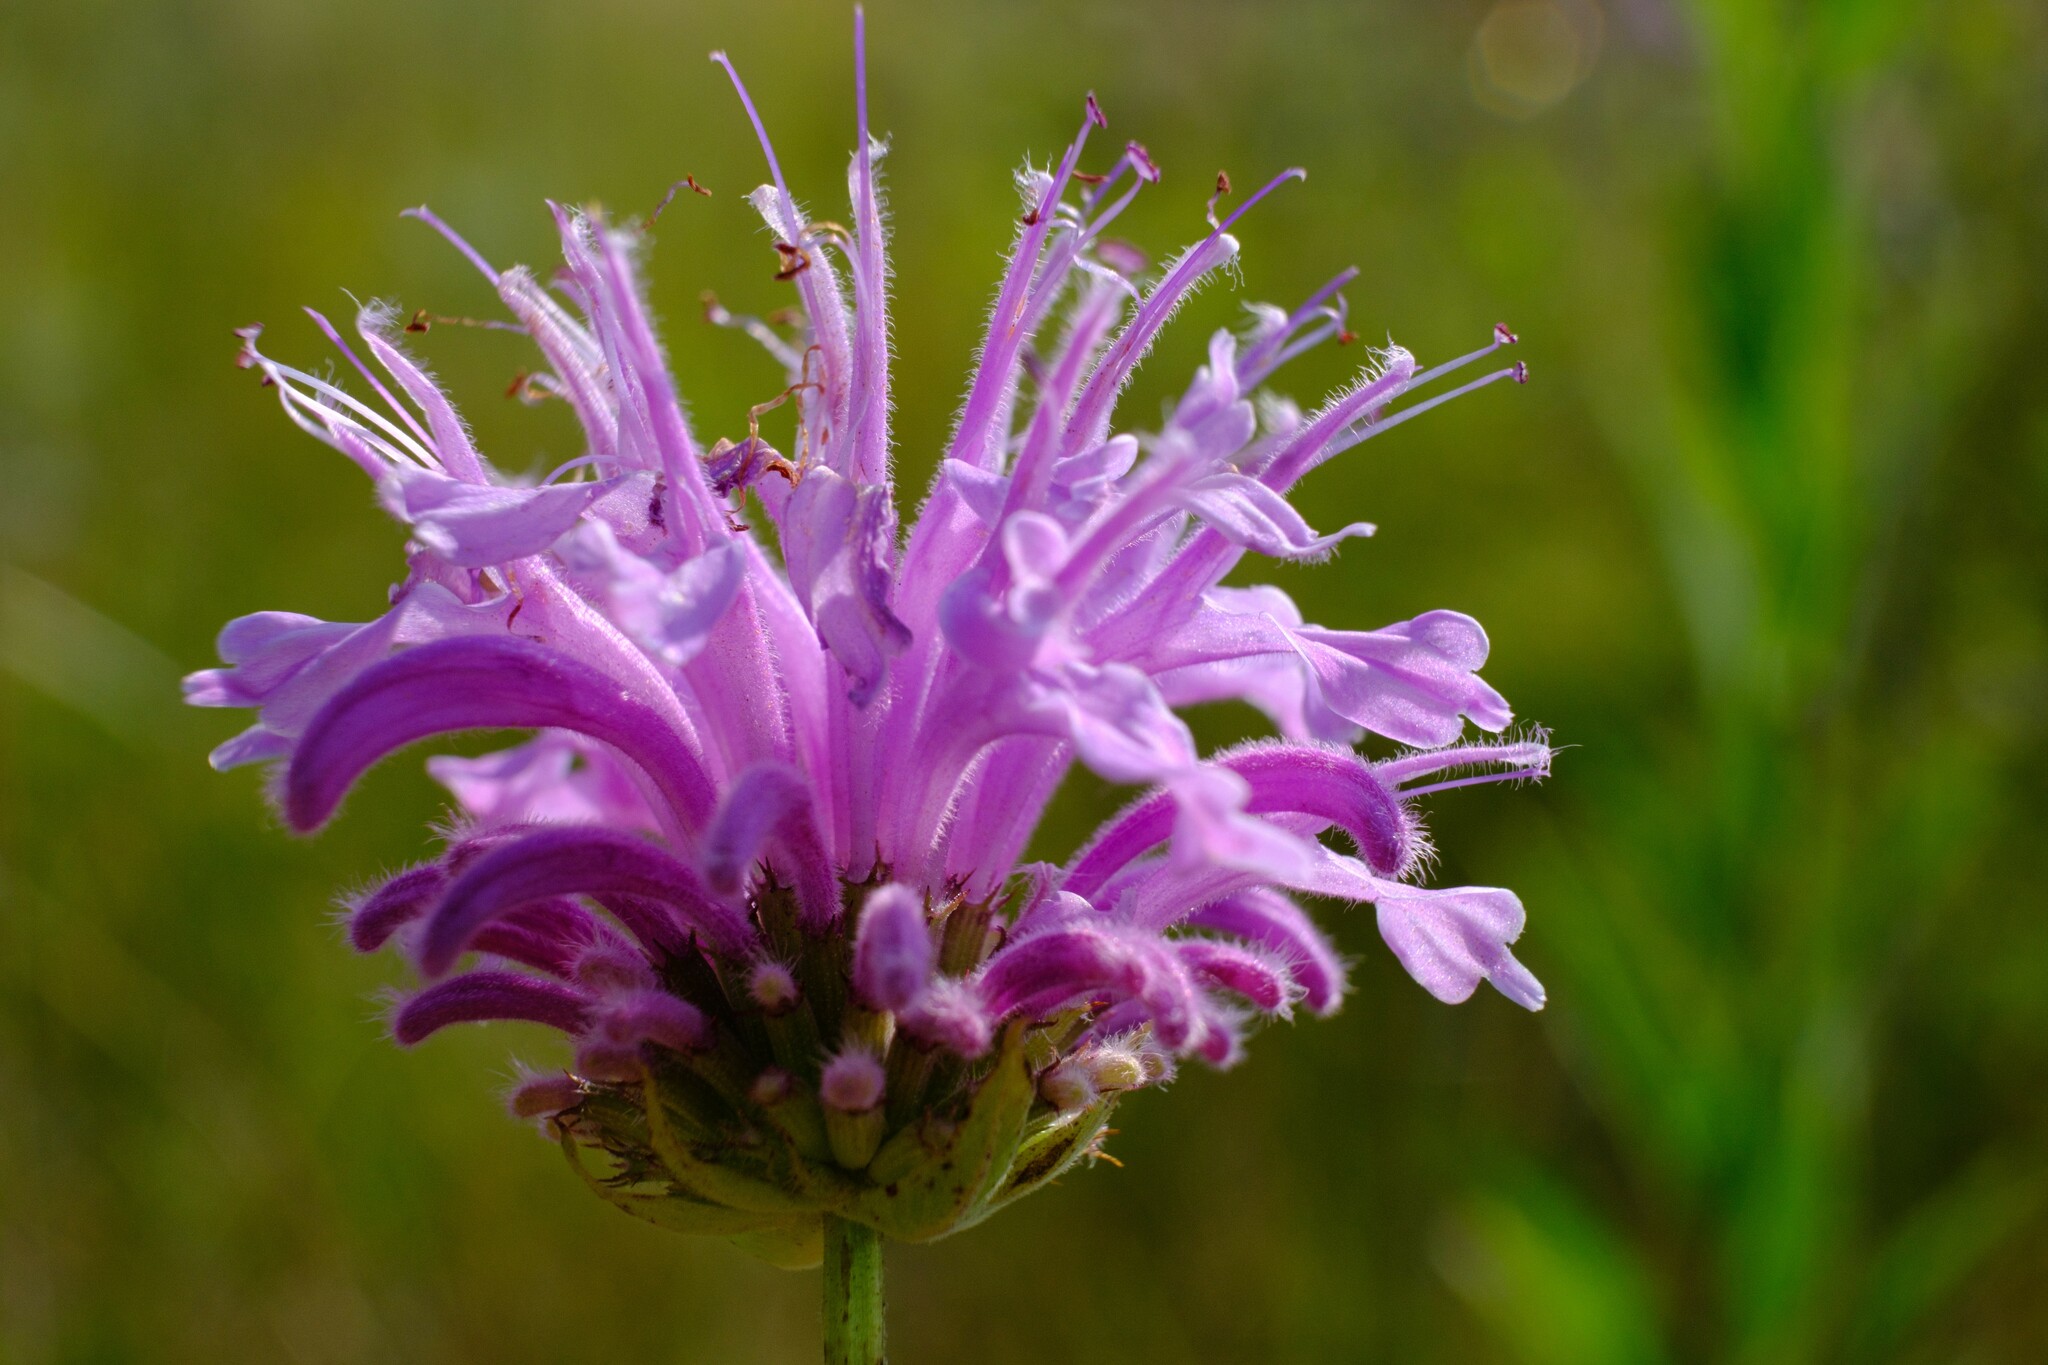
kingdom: Plantae
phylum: Tracheophyta
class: Magnoliopsida
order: Lamiales
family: Lamiaceae
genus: Monarda
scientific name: Monarda fistulosa
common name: Purple beebalm
